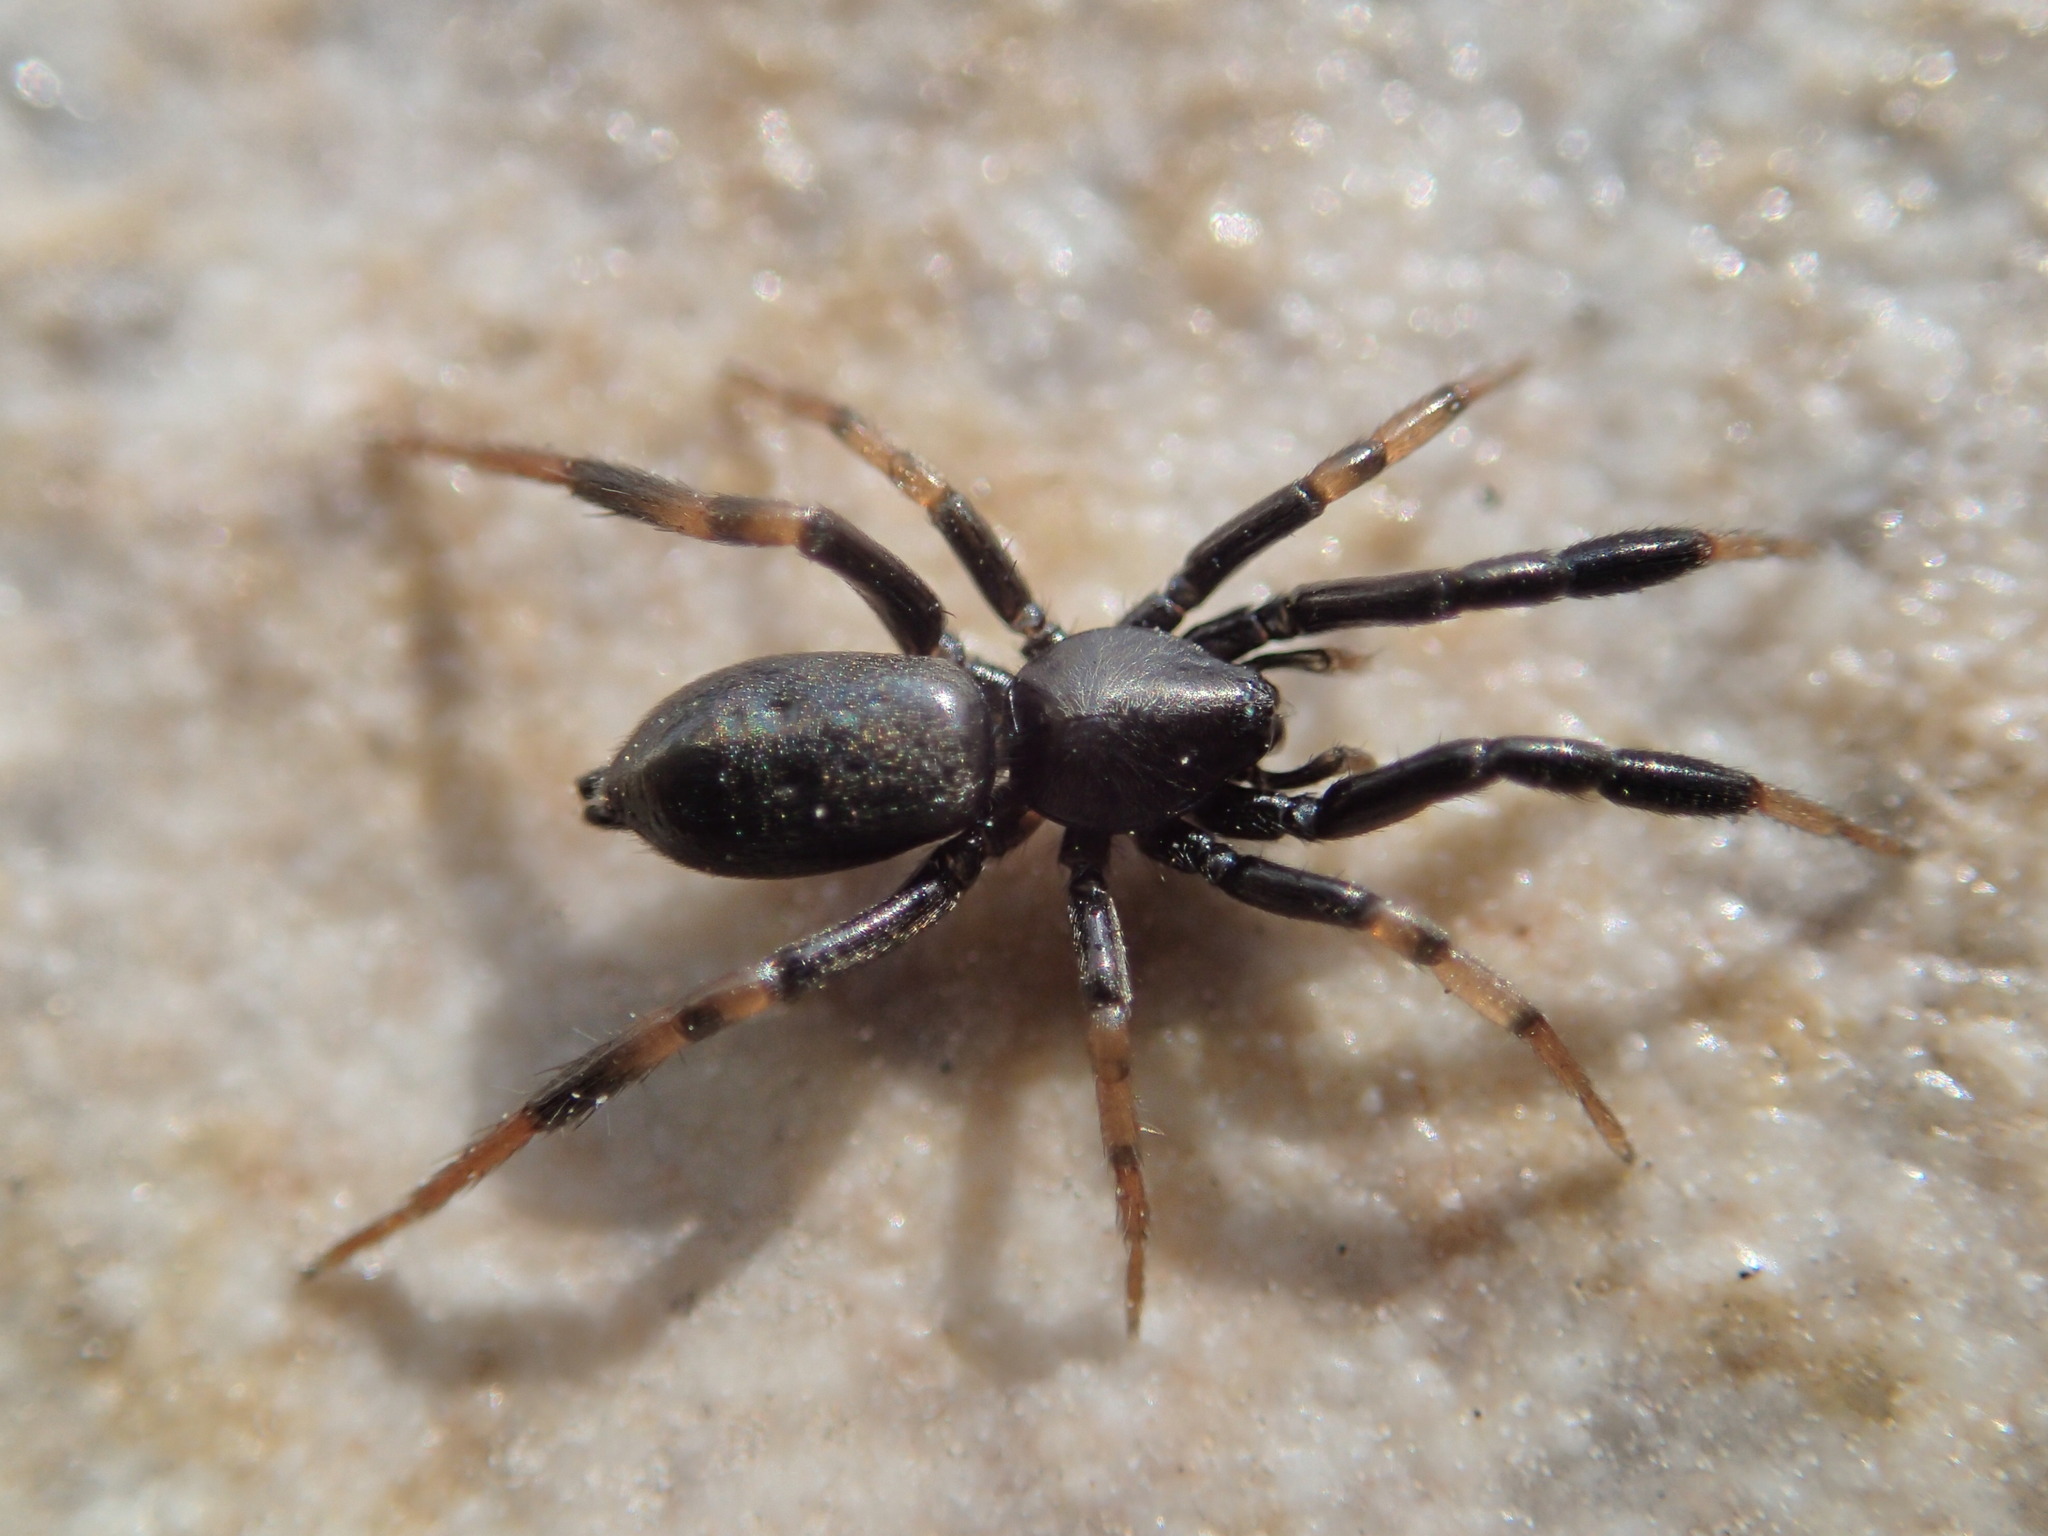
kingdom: Animalia
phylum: Arthropoda
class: Arachnida
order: Araneae
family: Gnaphosidae
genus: Setaphis
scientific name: Setaphis carmeli
